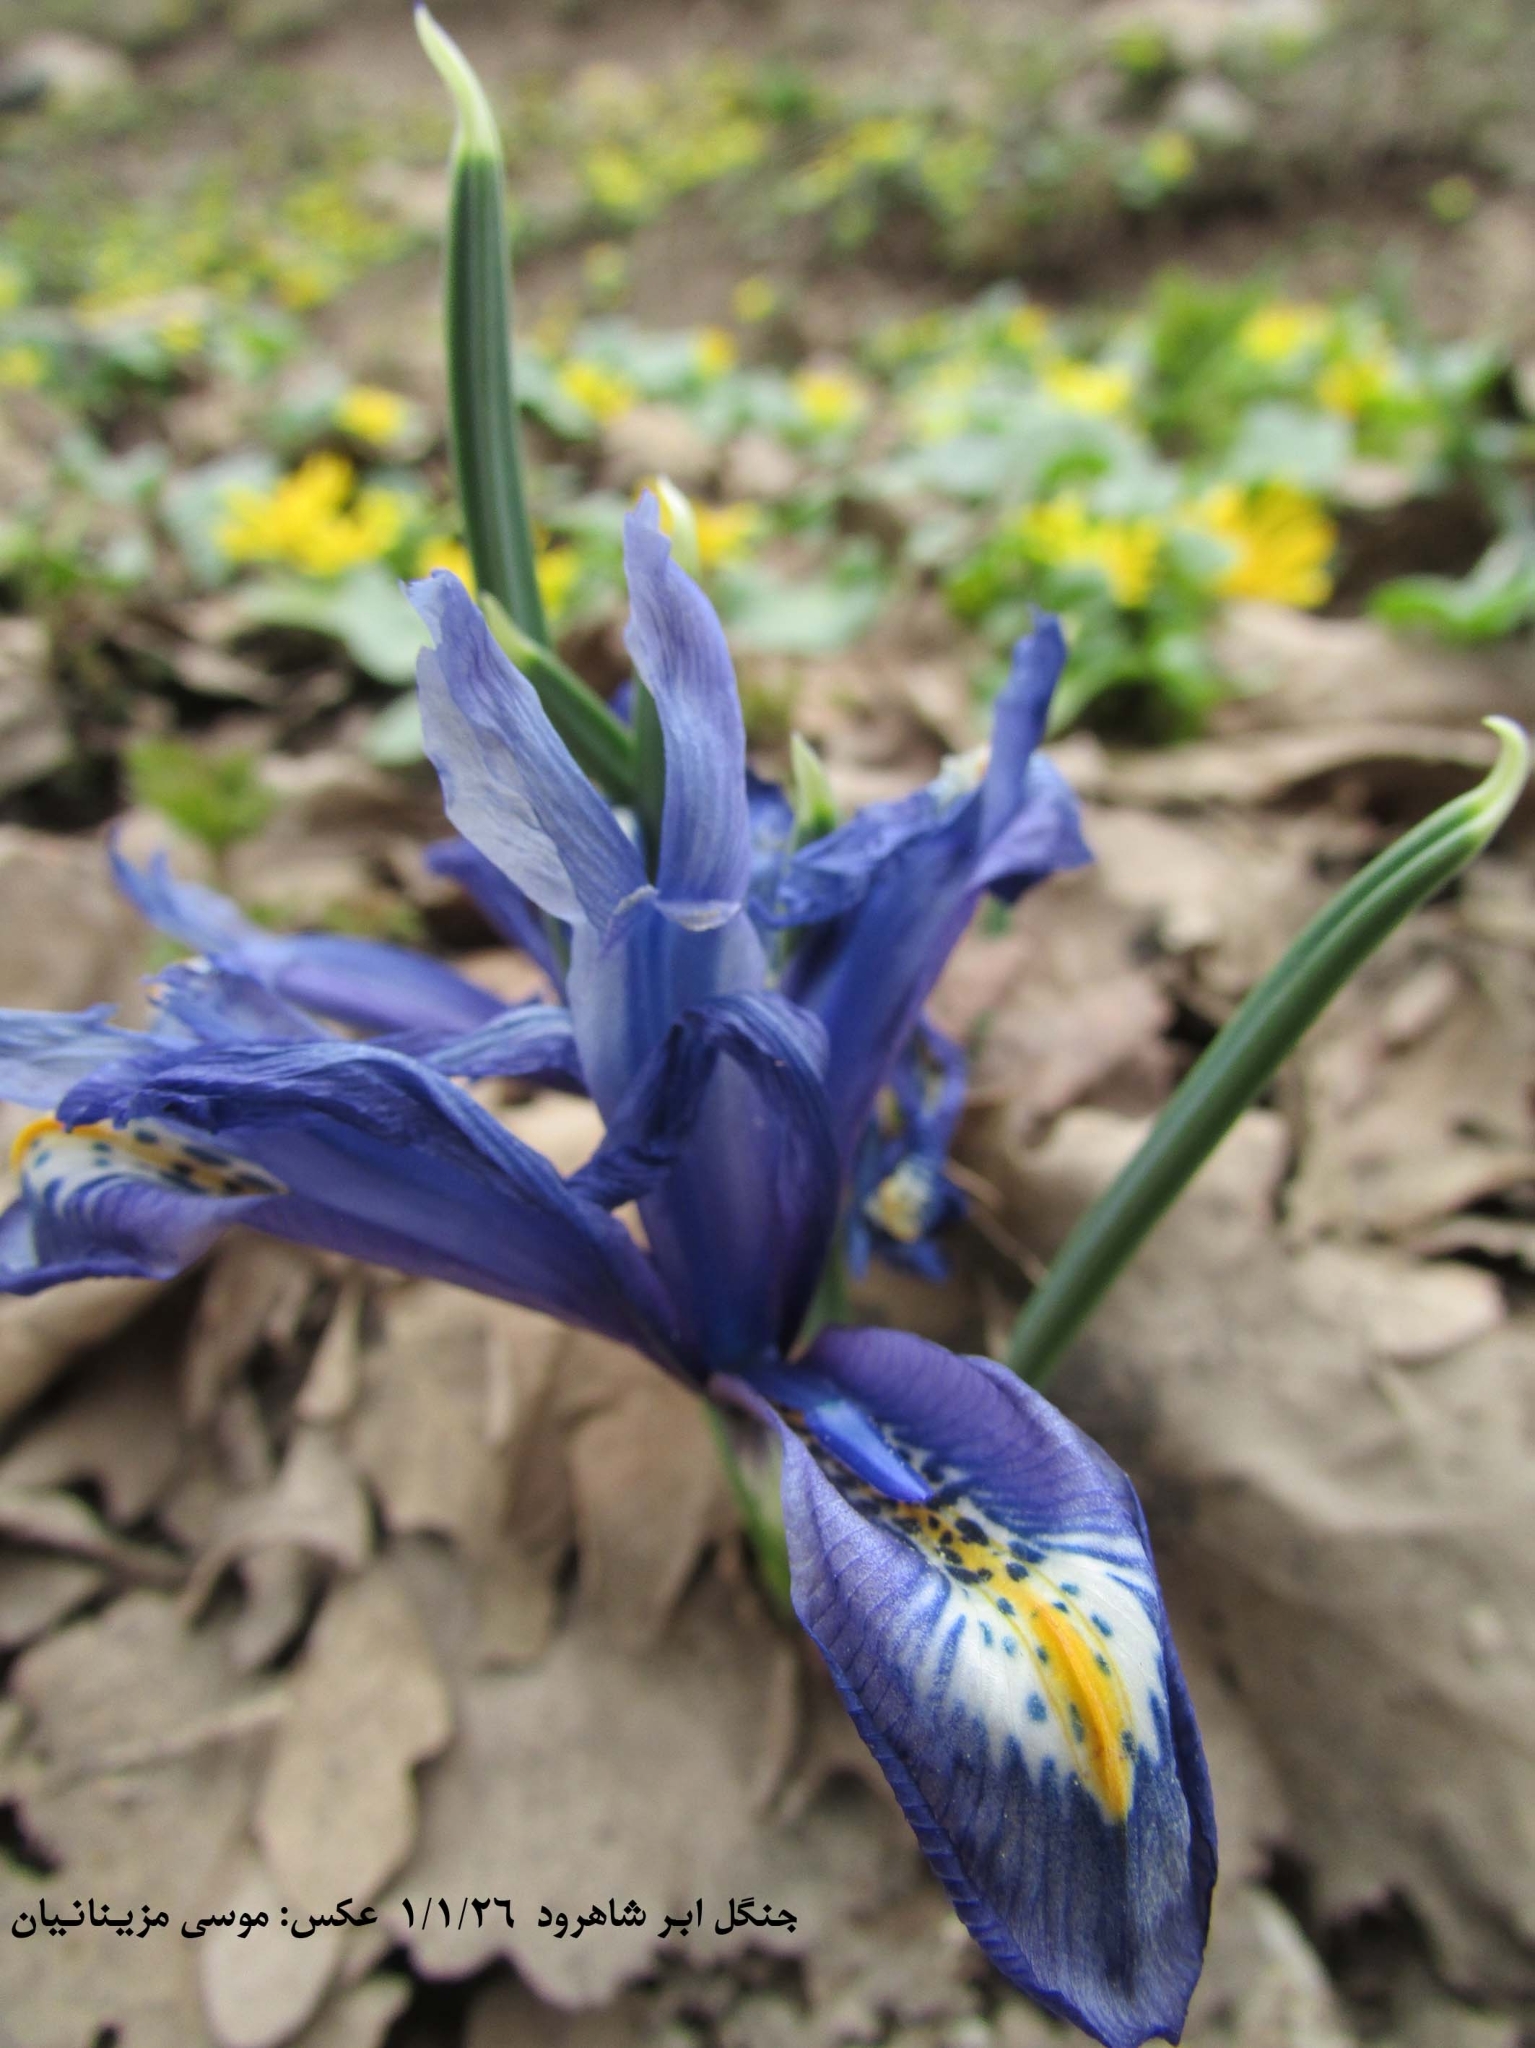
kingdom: Plantae
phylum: Tracheophyta
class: Liliopsida
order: Asparagales
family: Iridaceae
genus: Iris
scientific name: Iris reticulata
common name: Netted iris
